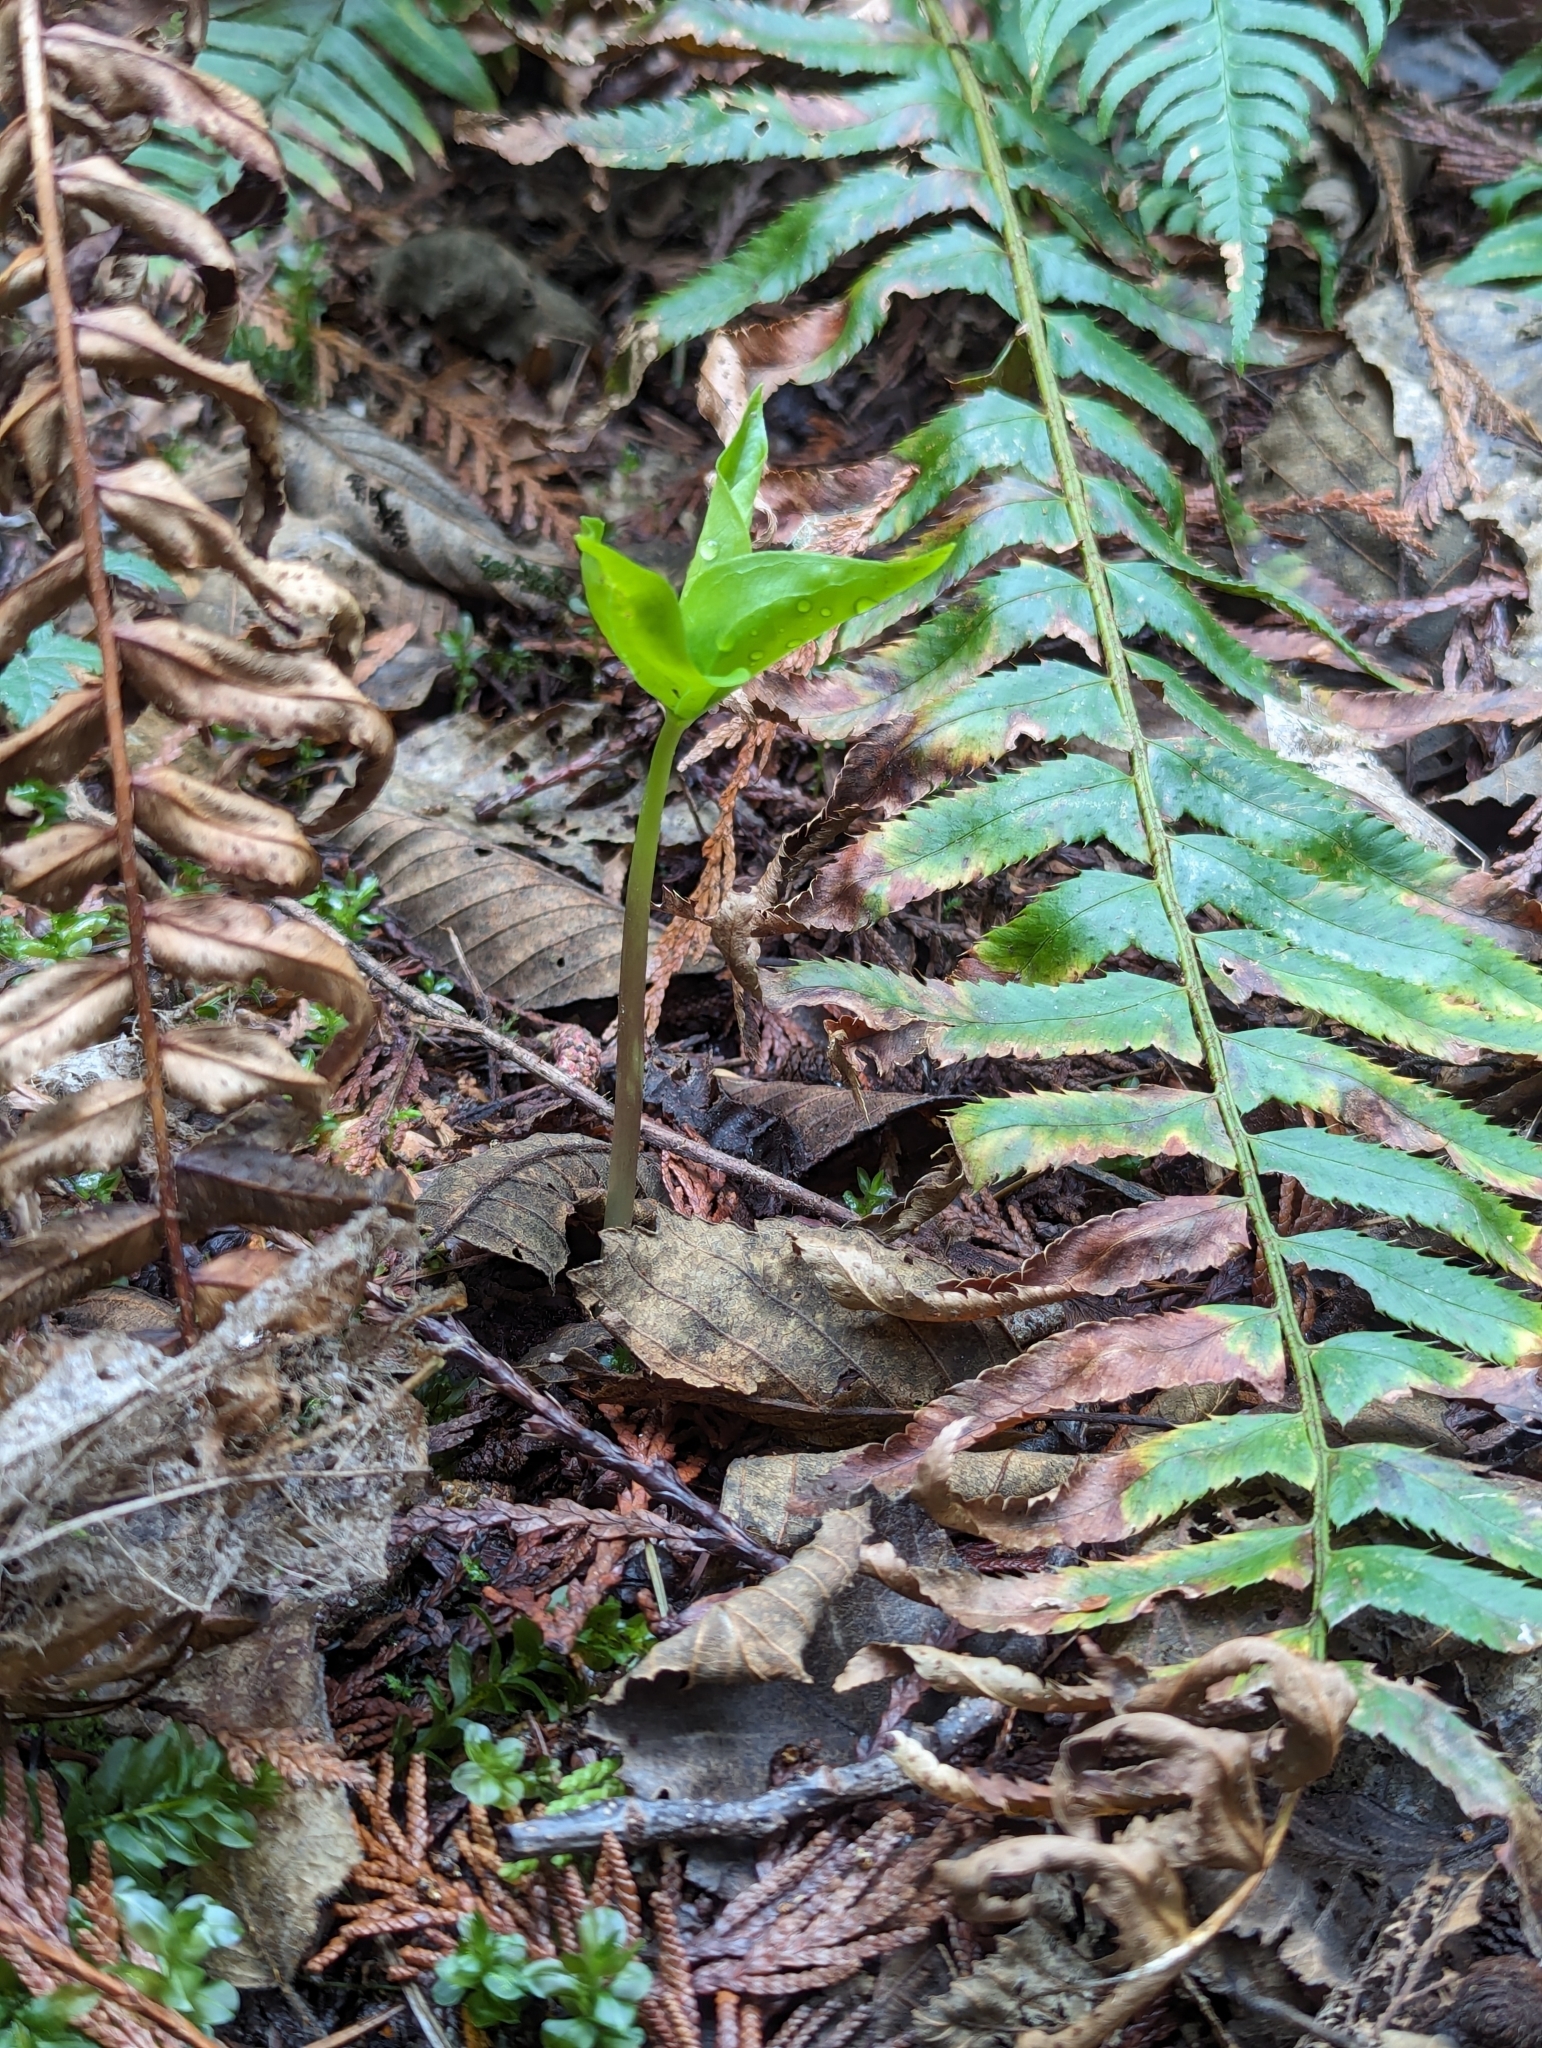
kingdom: Plantae
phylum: Tracheophyta
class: Liliopsida
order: Liliales
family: Melanthiaceae
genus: Trillium
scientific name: Trillium ovatum
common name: Pacific trillium
